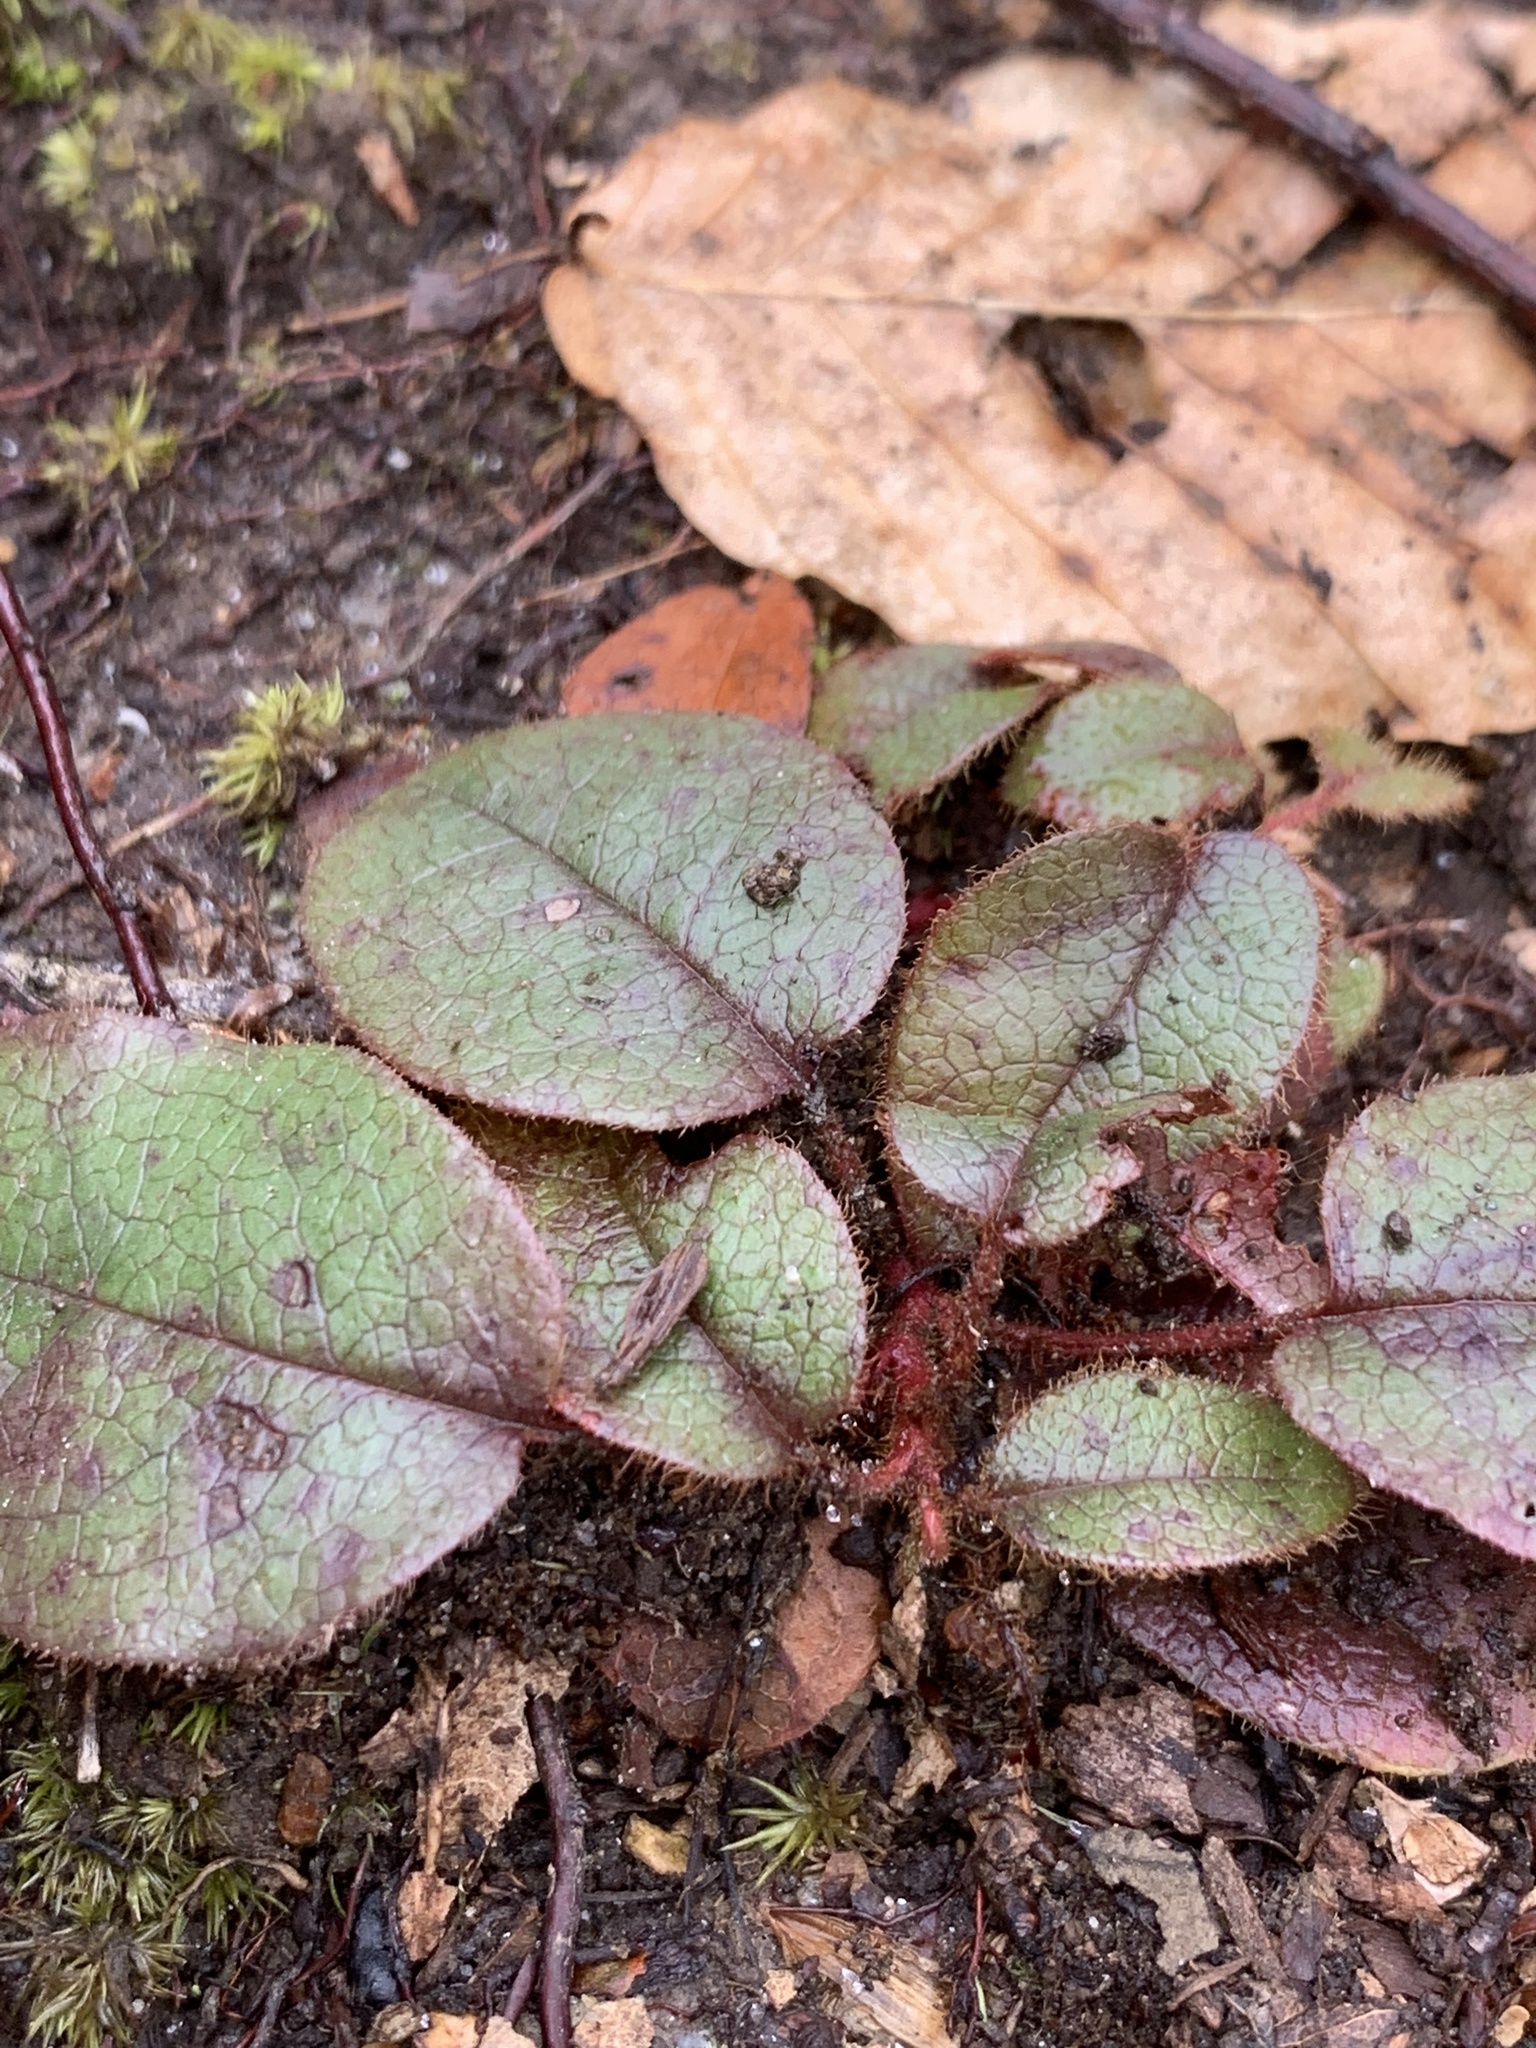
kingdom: Plantae
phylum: Tracheophyta
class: Magnoliopsida
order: Ericales
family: Ericaceae
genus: Epigaea
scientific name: Epigaea repens
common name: Gravelroot
